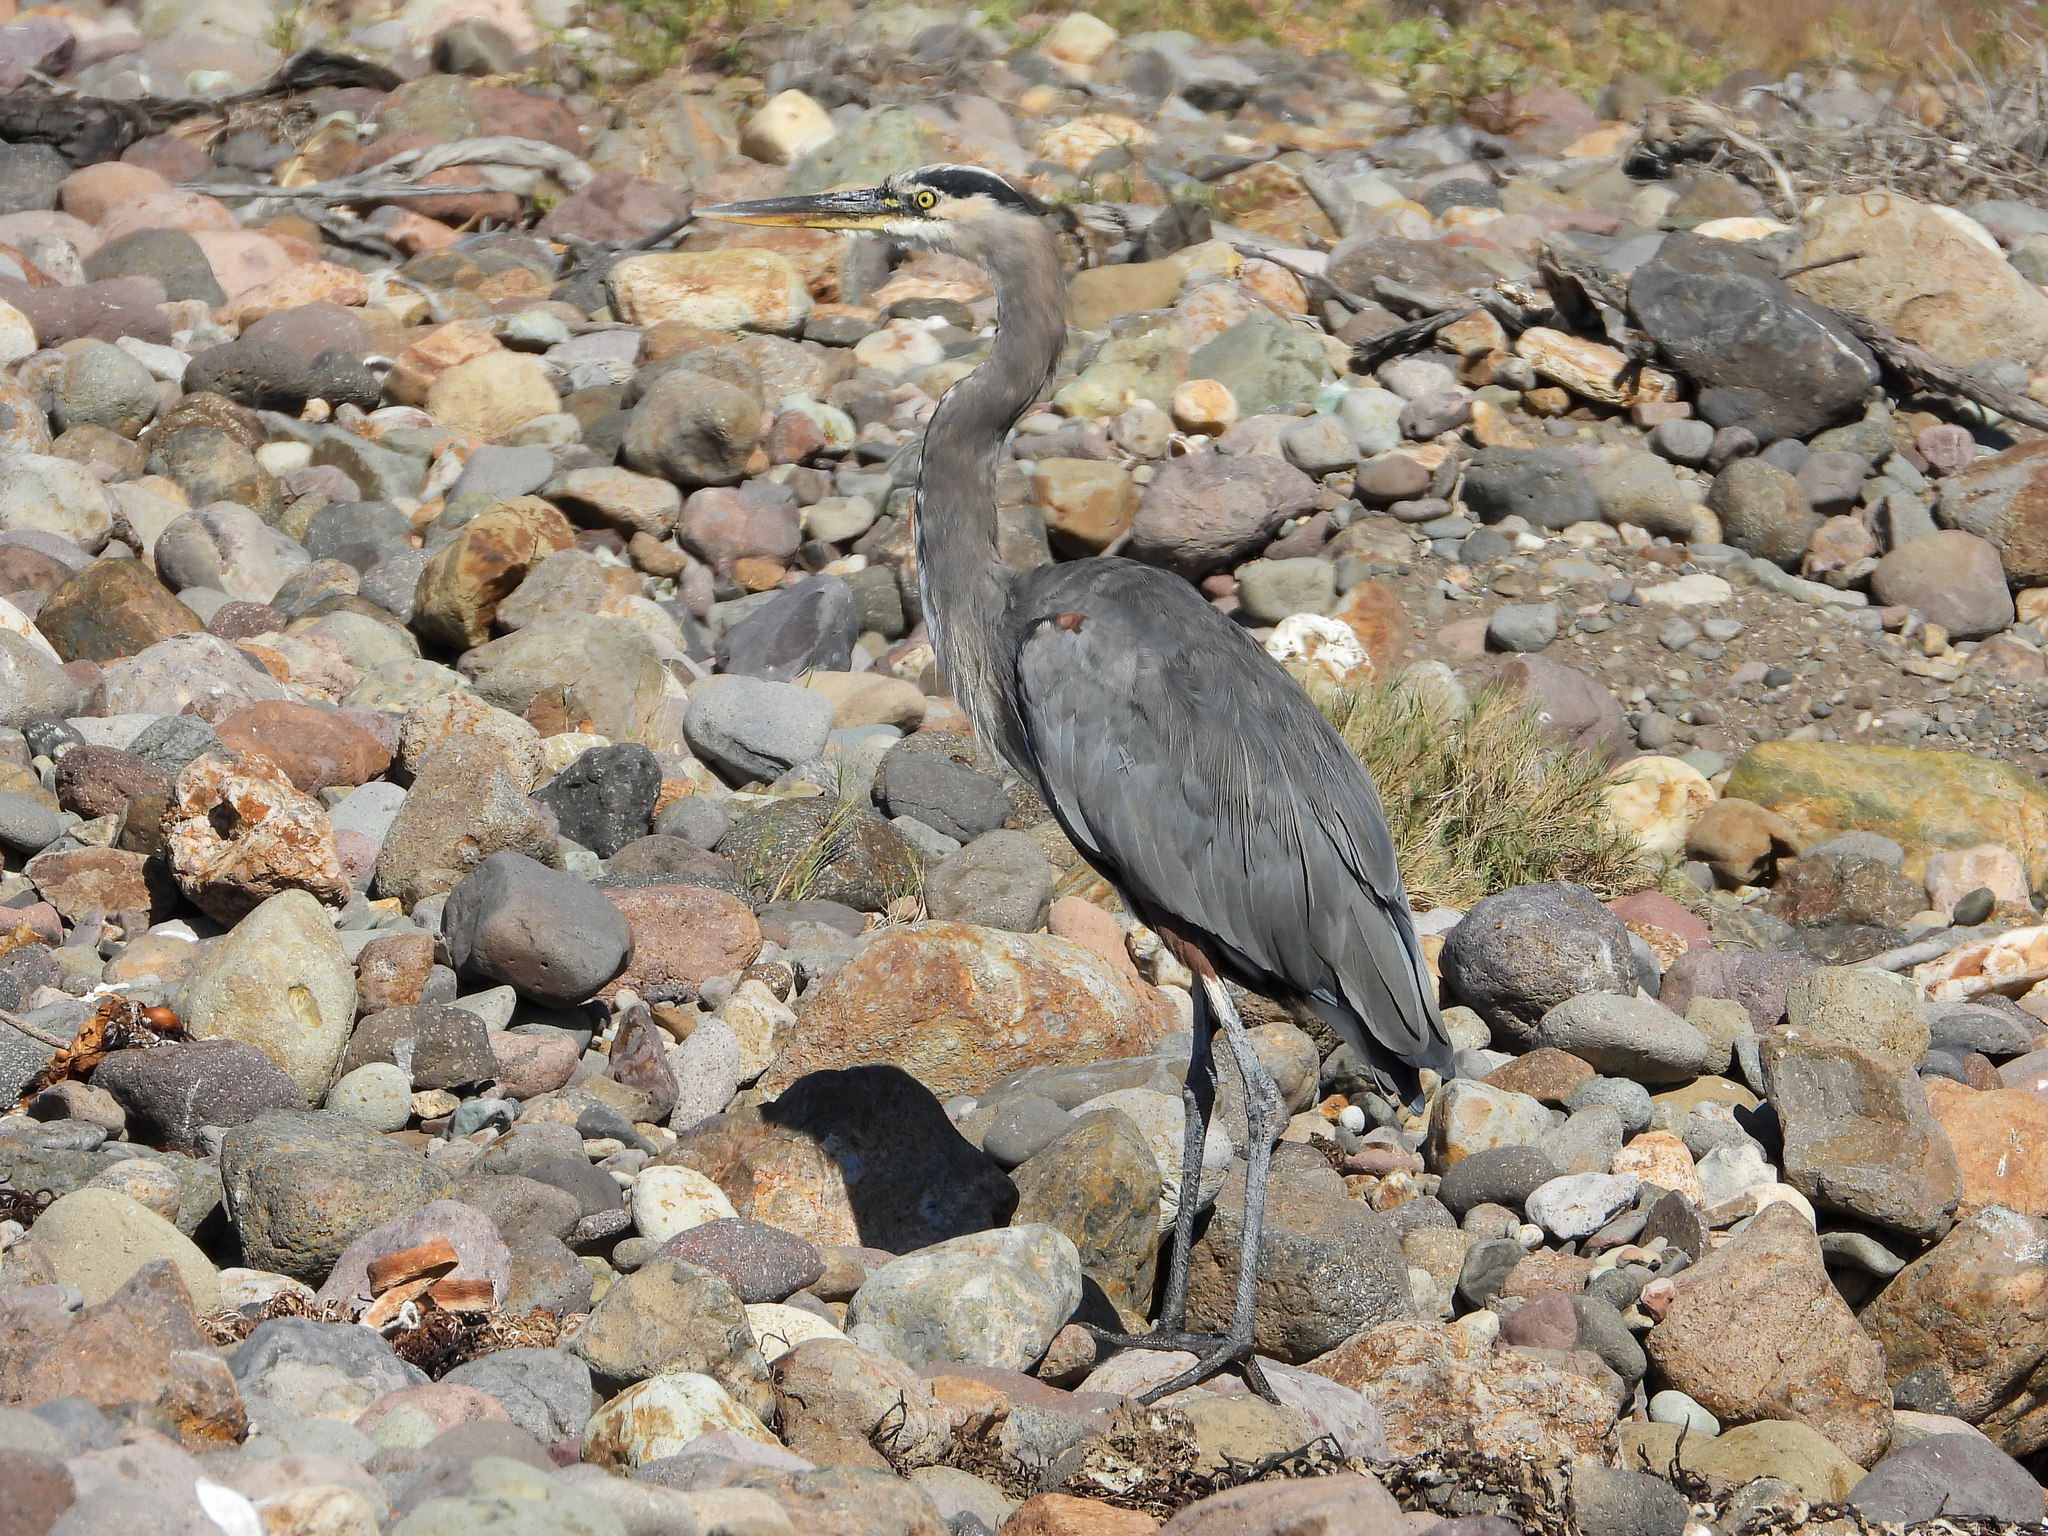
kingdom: Animalia
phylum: Chordata
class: Aves
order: Pelecaniformes
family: Ardeidae
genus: Ardea
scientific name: Ardea herodias
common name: Great blue heron
